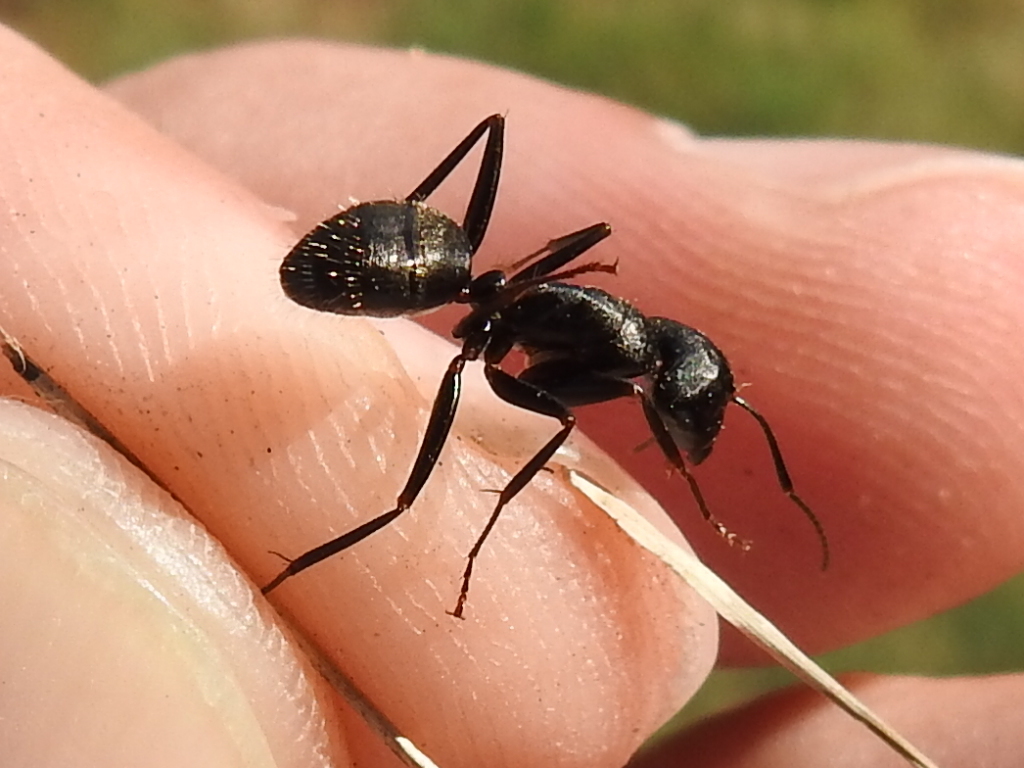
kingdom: Animalia
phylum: Arthropoda
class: Insecta
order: Hymenoptera
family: Formicidae
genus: Camponotus
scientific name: Camponotus pennsylvanicus
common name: Black carpenter ant
